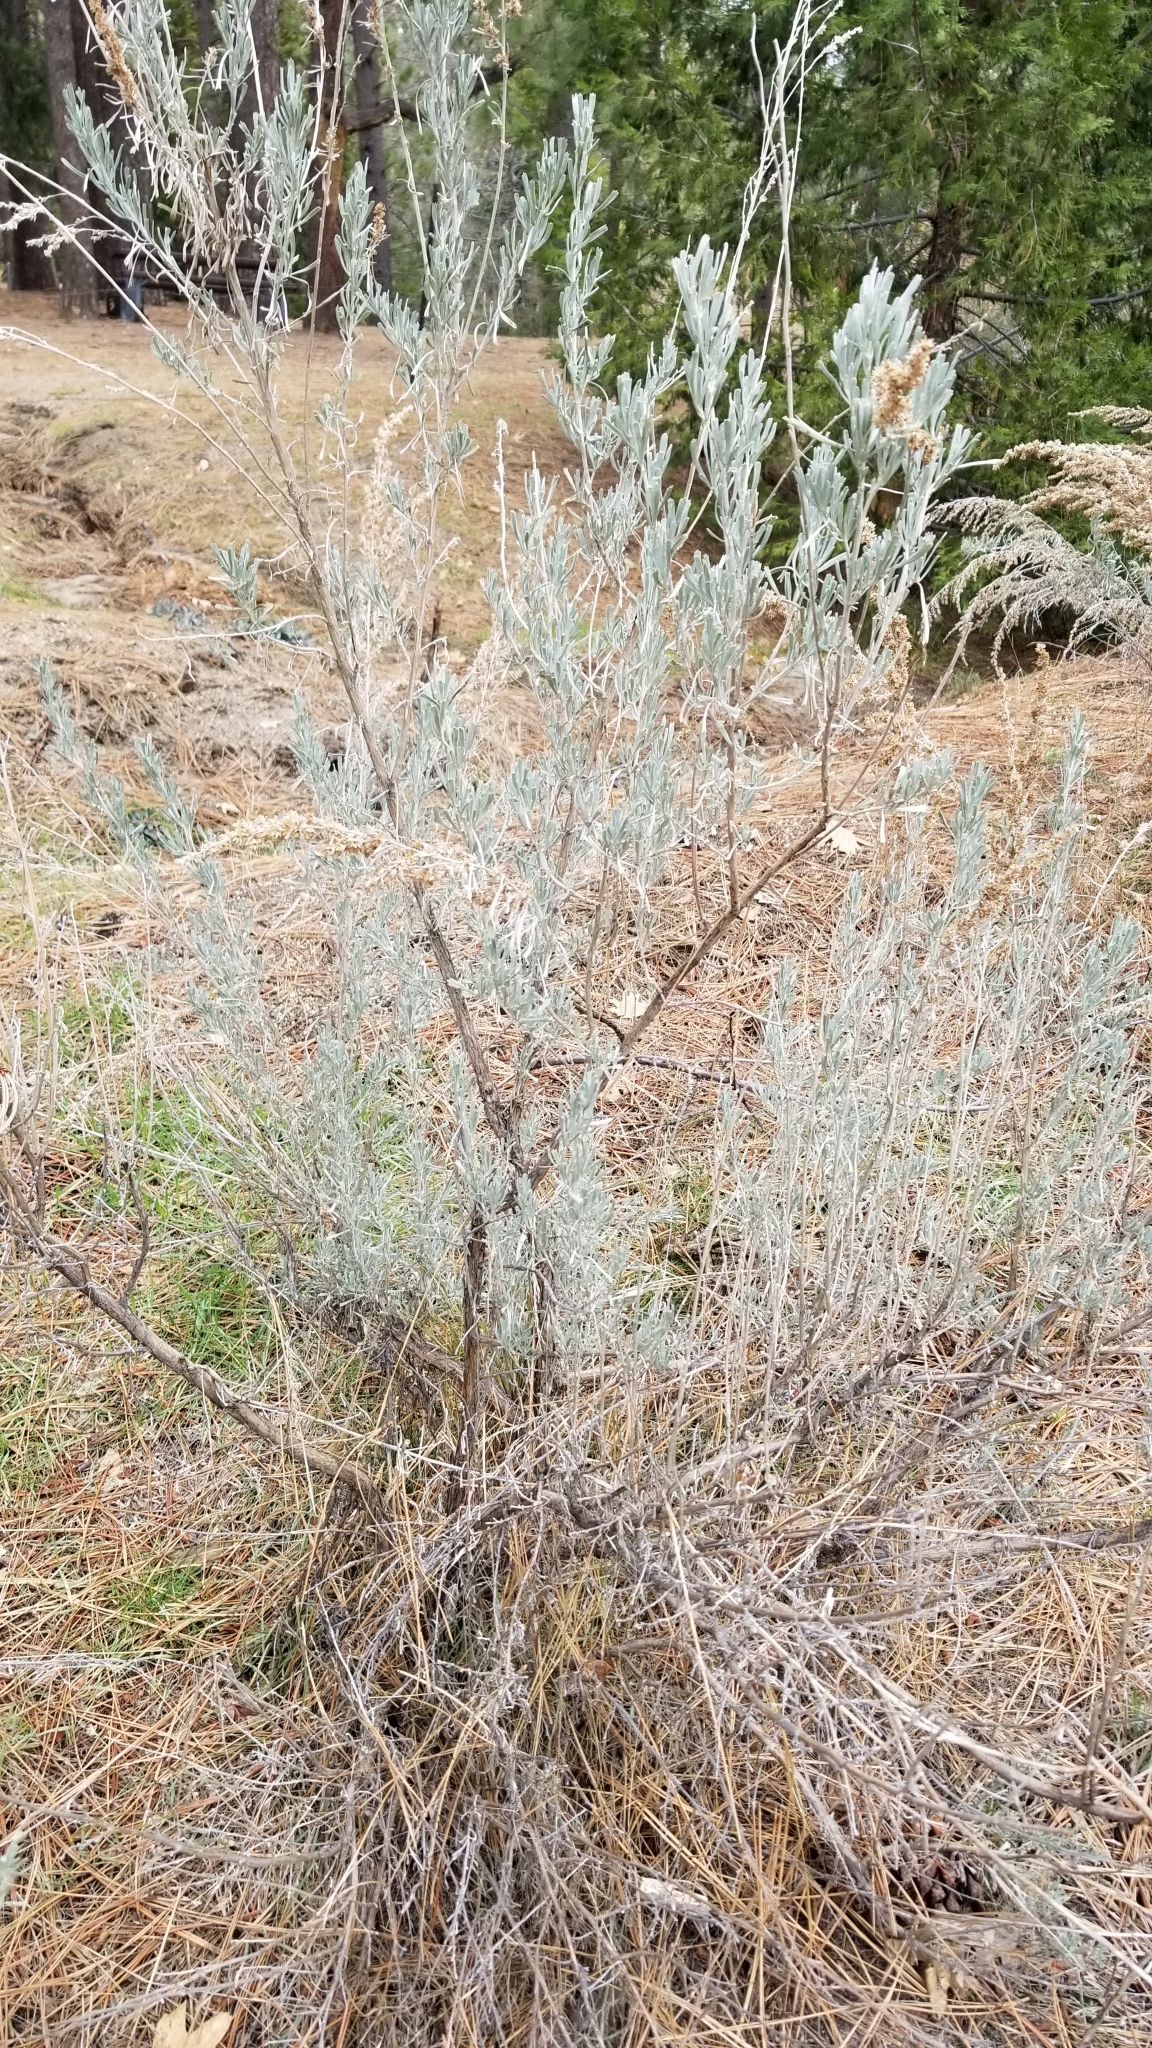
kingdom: Plantae
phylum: Tracheophyta
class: Magnoliopsida
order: Asterales
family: Asteraceae
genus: Artemisia
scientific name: Artemisia tridentata
